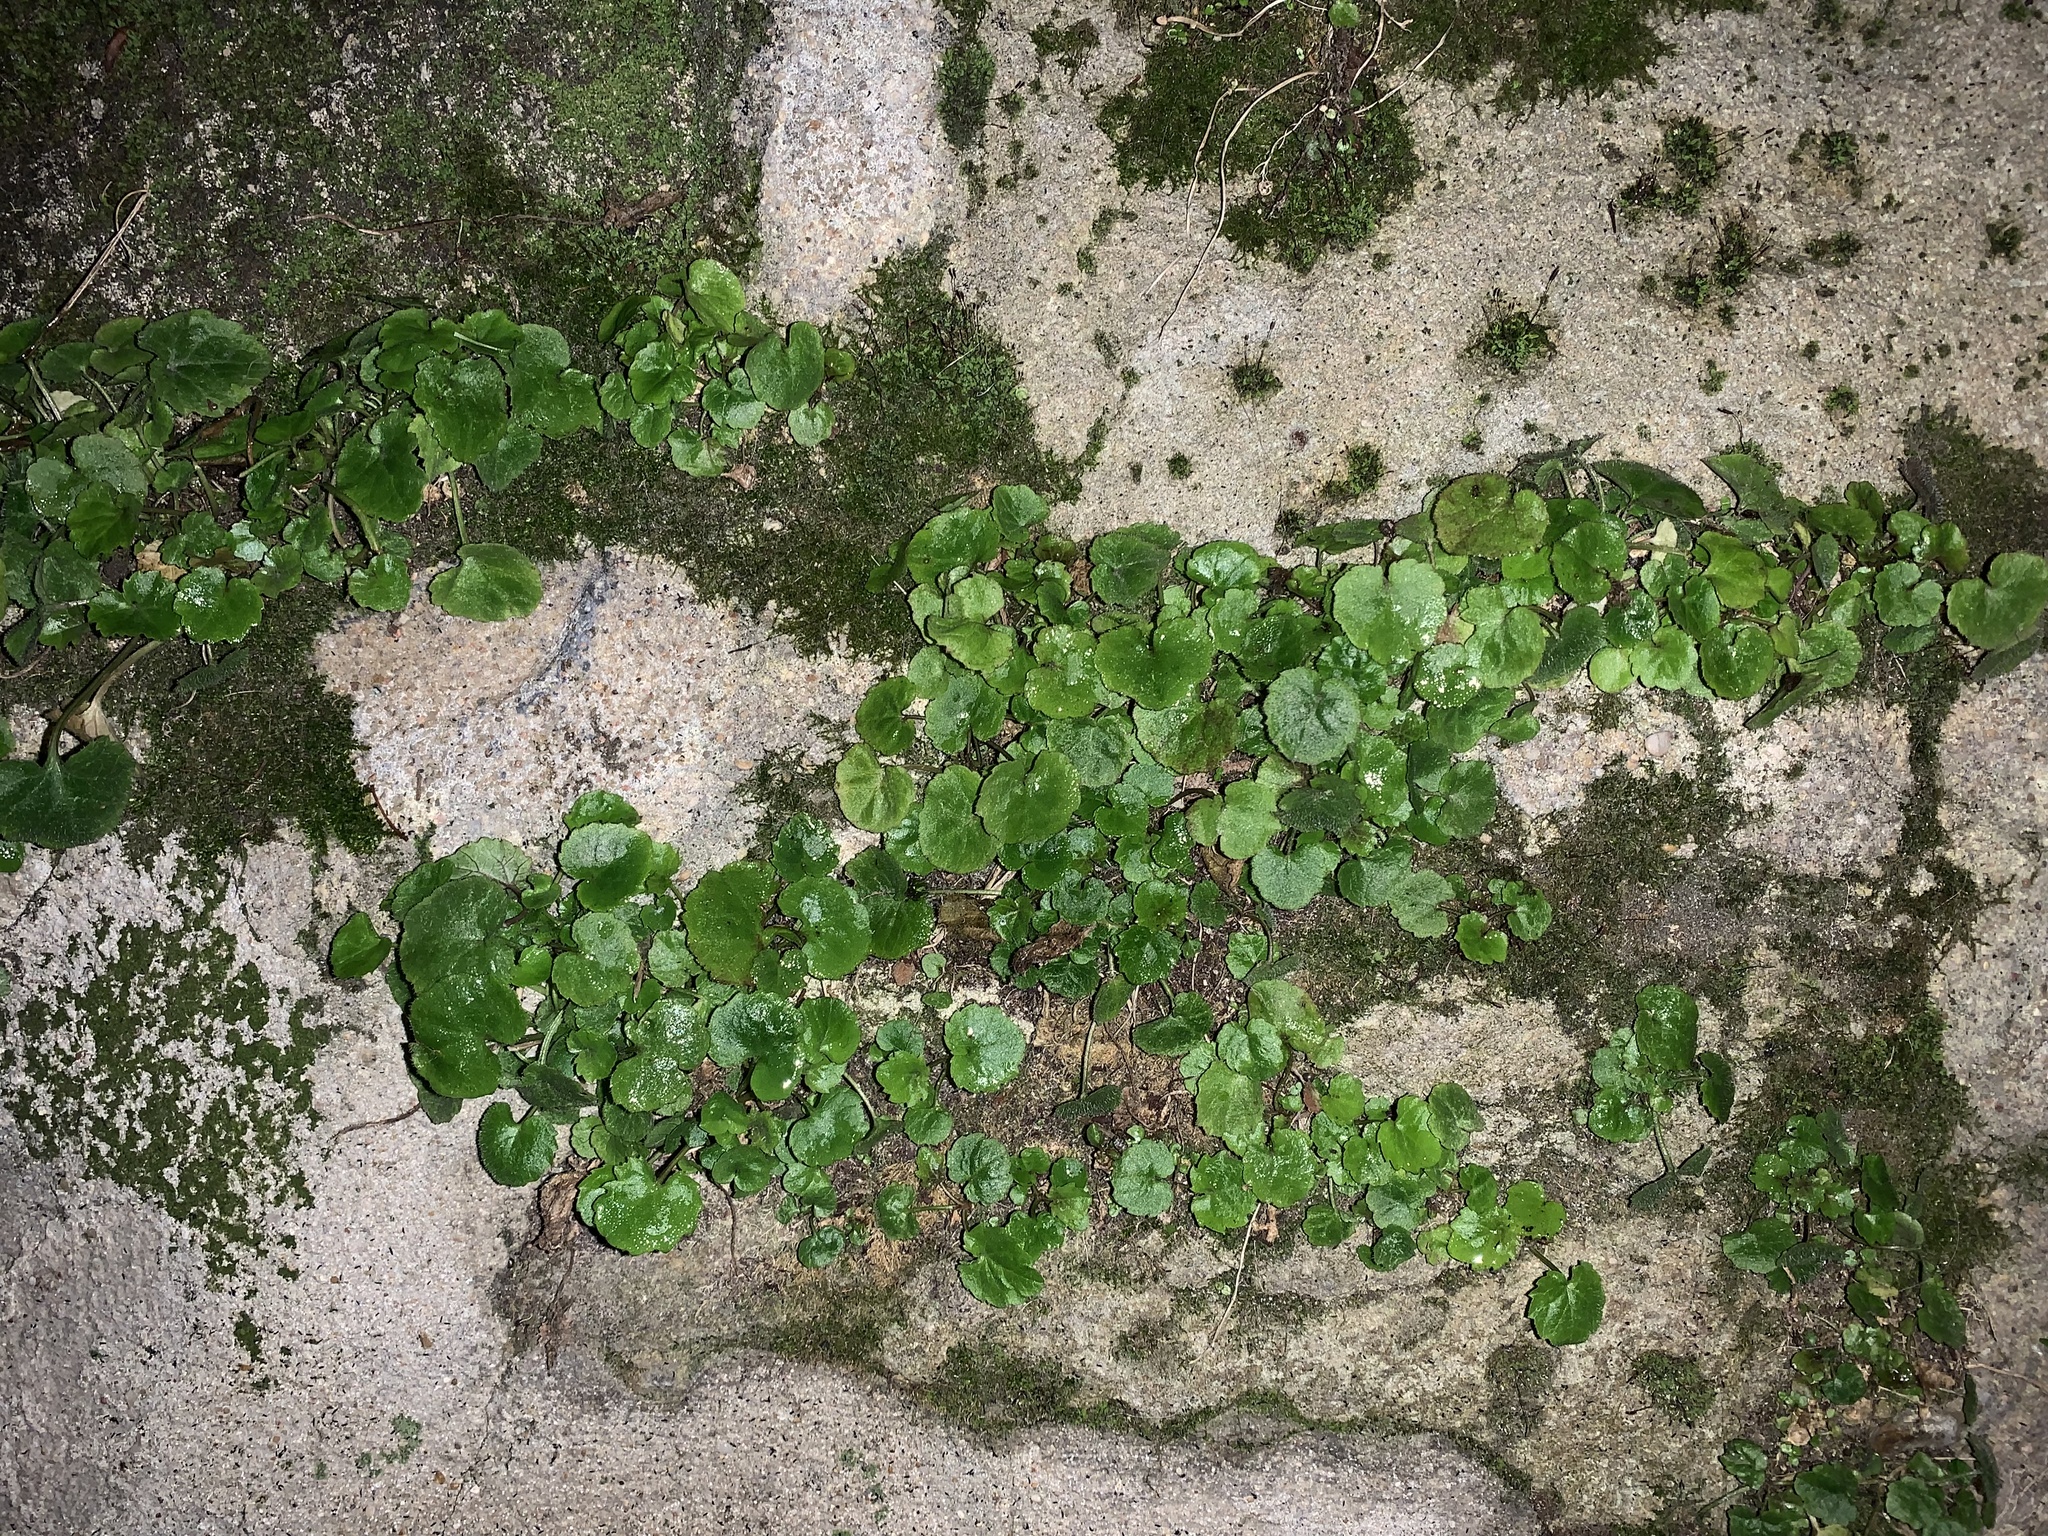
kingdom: Plantae
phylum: Tracheophyta
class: Magnoliopsida
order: Lamiales
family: Plantaginaceae
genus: Cymbalaria
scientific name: Cymbalaria muralis
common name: Ivy-leaved toadflax
